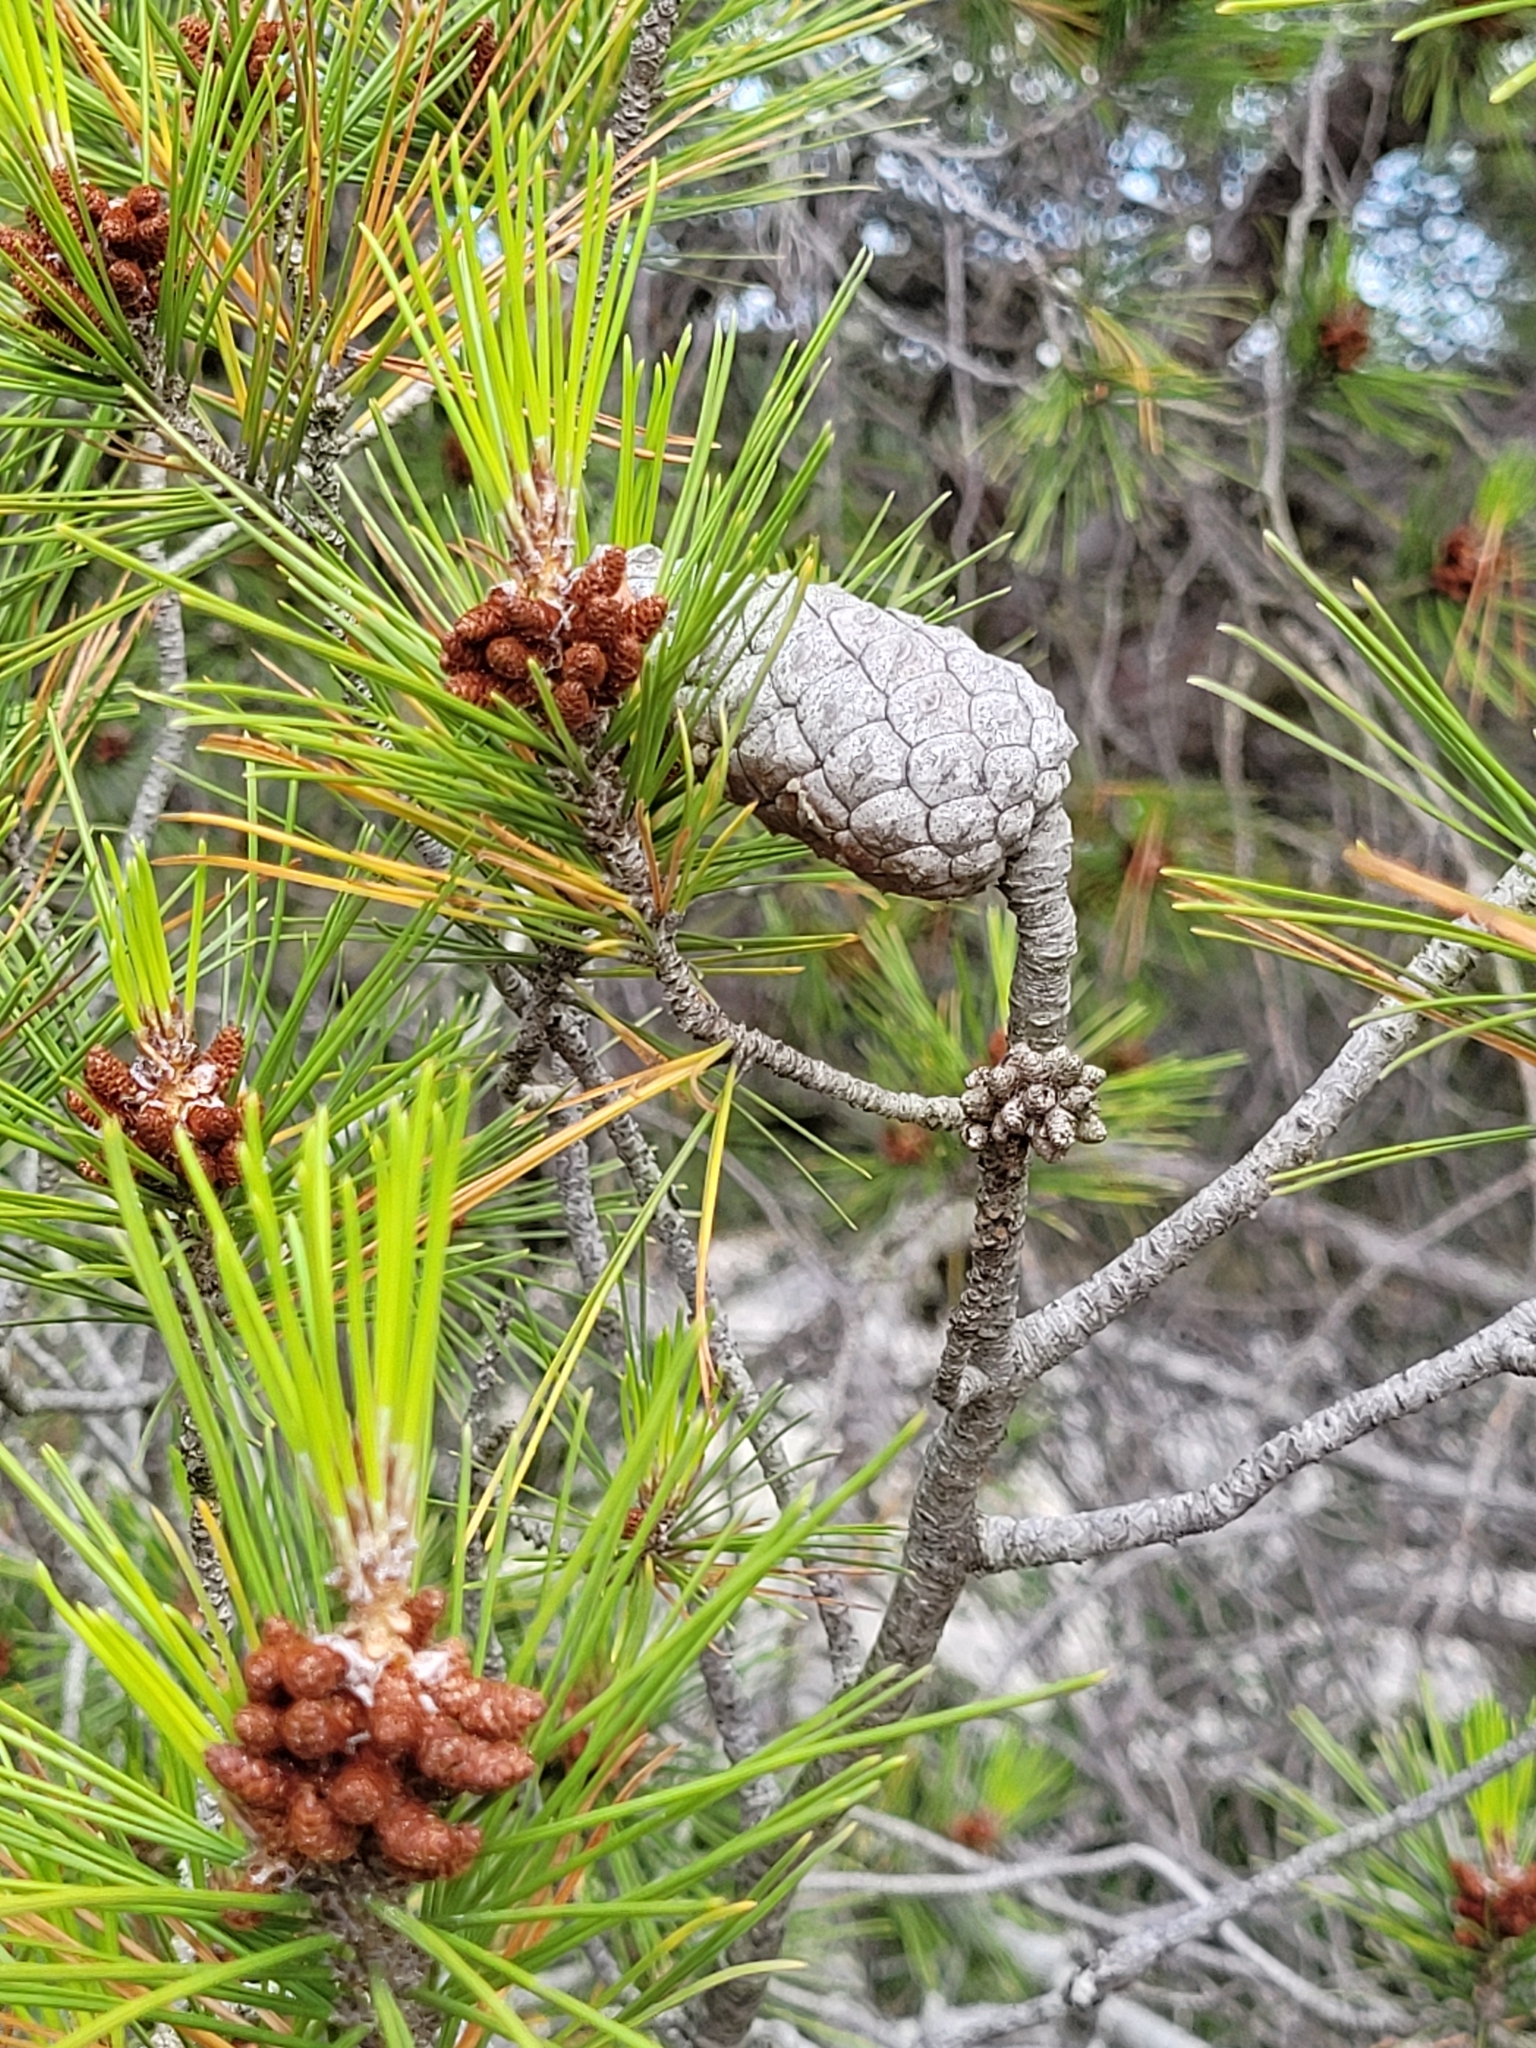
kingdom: Plantae
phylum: Tracheophyta
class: Pinopsida
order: Pinales
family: Pinaceae
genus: Pinus
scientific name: Pinus halepensis
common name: Aleppo pine
